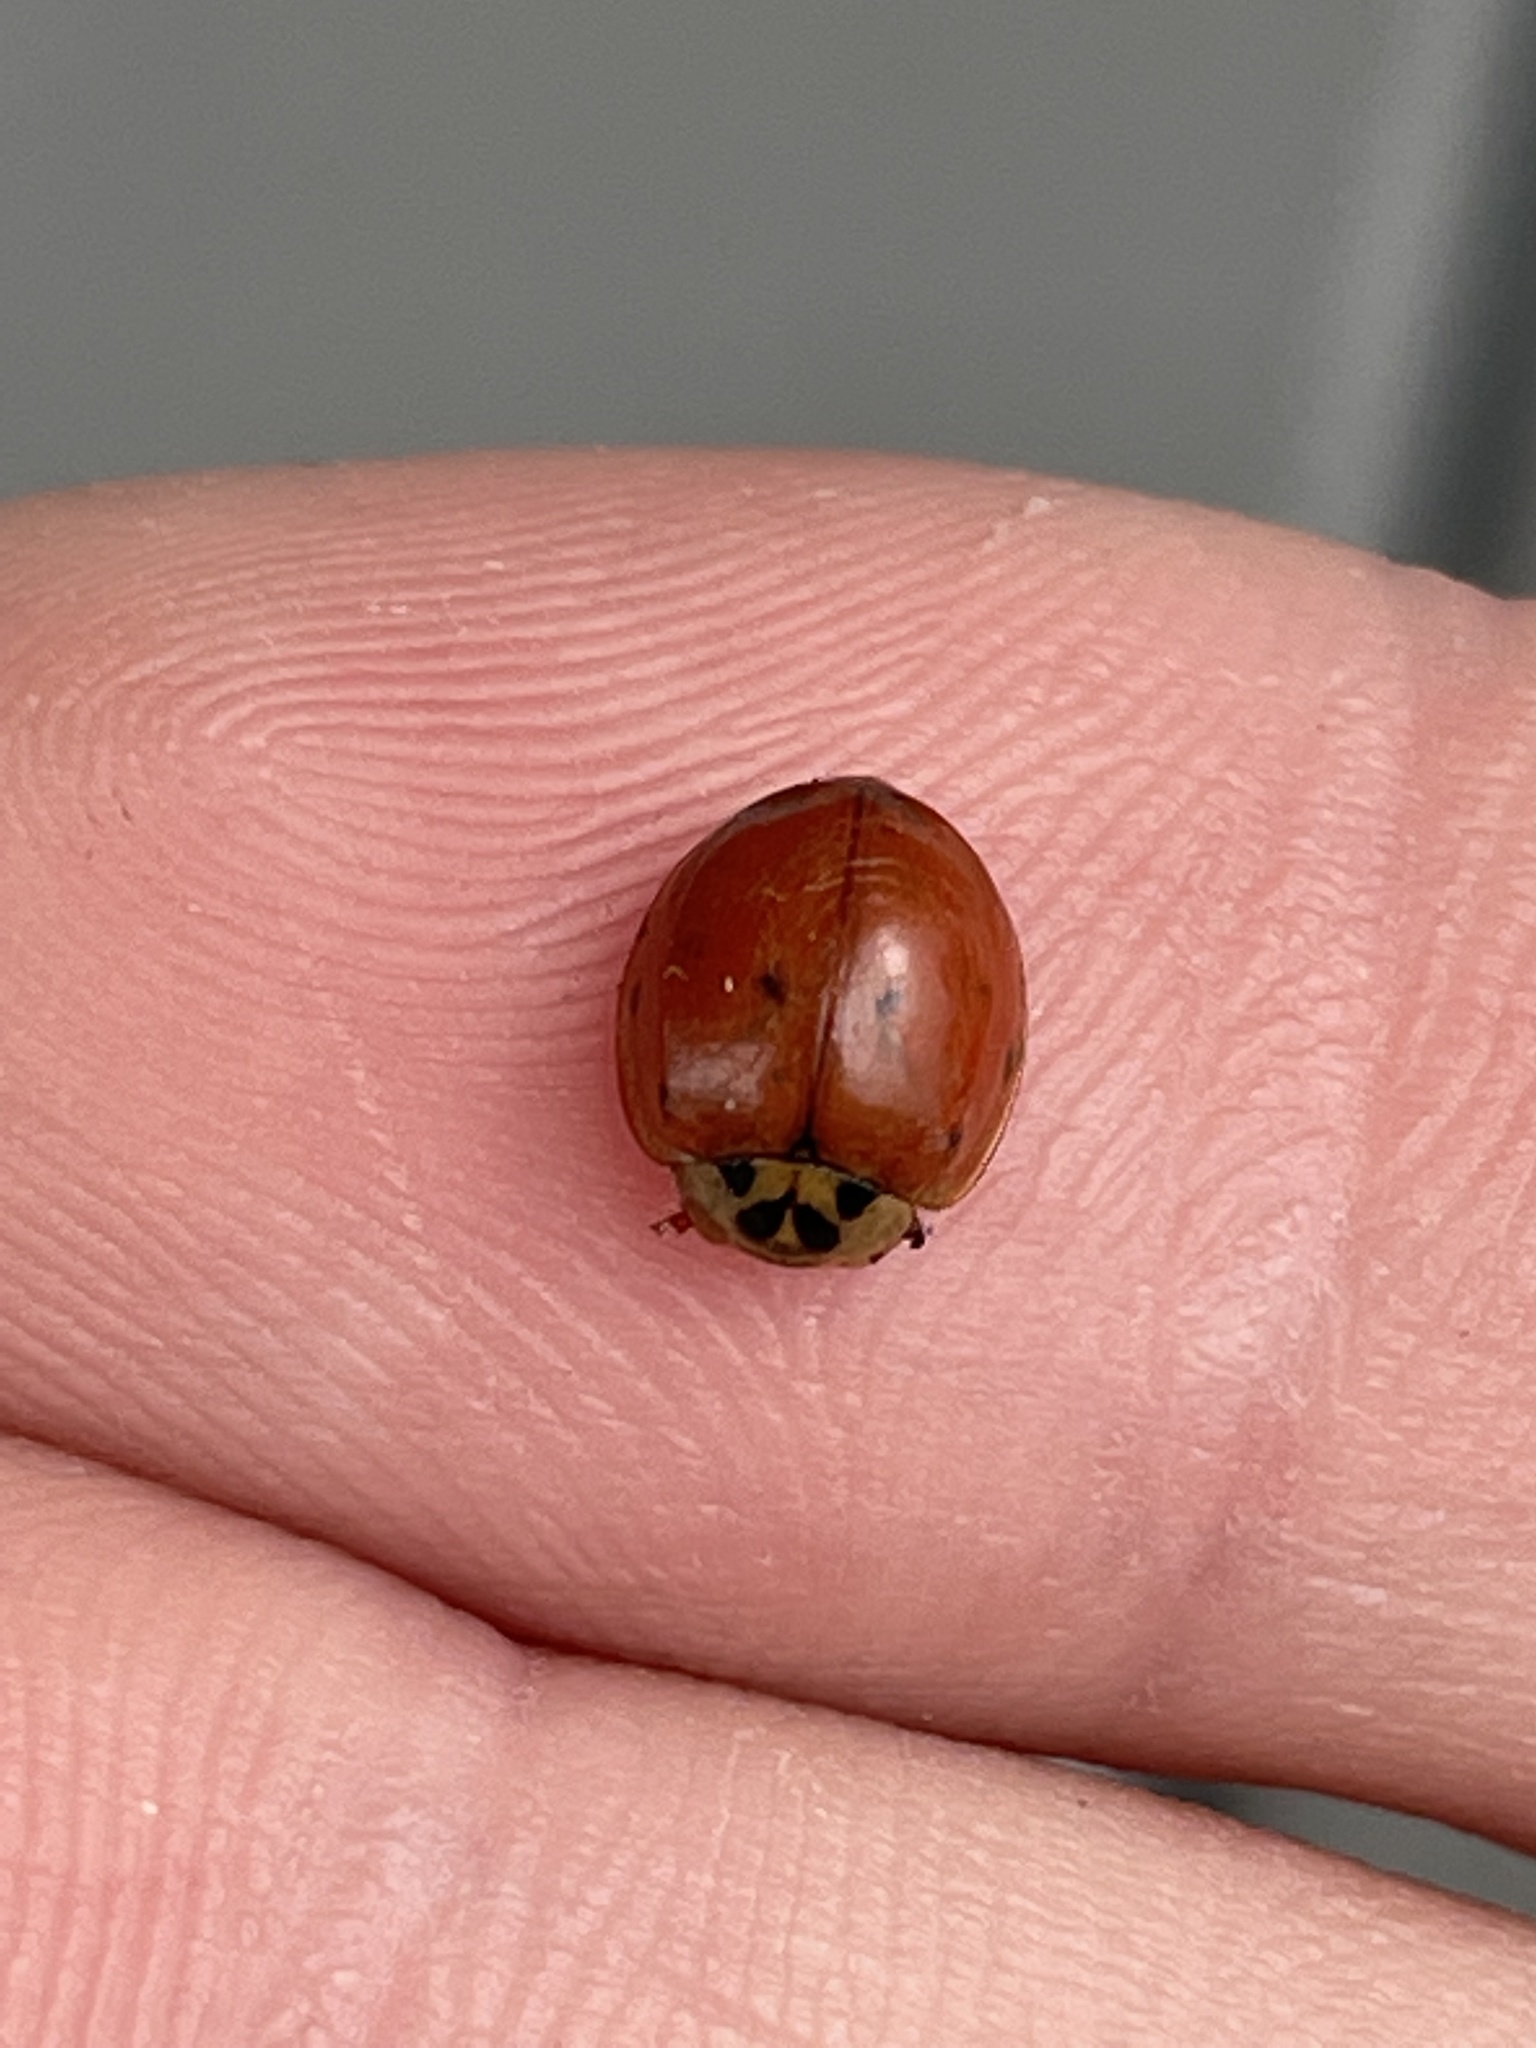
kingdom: Animalia
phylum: Arthropoda
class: Insecta
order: Coleoptera
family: Coccinellidae
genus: Harmonia
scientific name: Harmonia axyridis
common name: Harlequin ladybird
